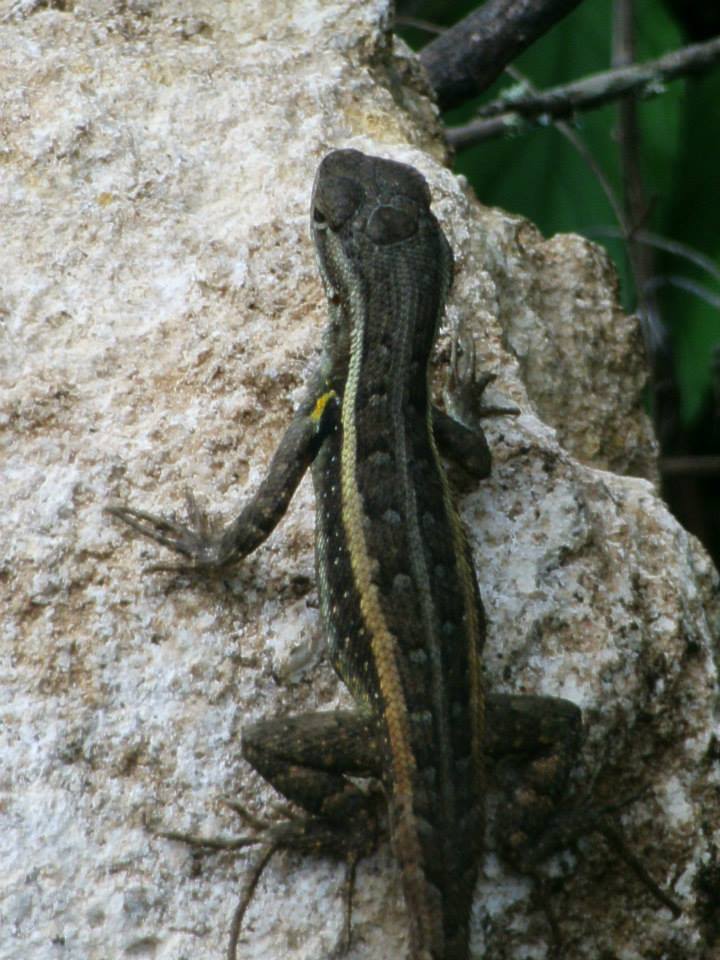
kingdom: Animalia
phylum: Chordata
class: Squamata
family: Phrynosomatidae
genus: Sceloporus
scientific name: Sceloporus variabilis
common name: Rosebelly lizard
